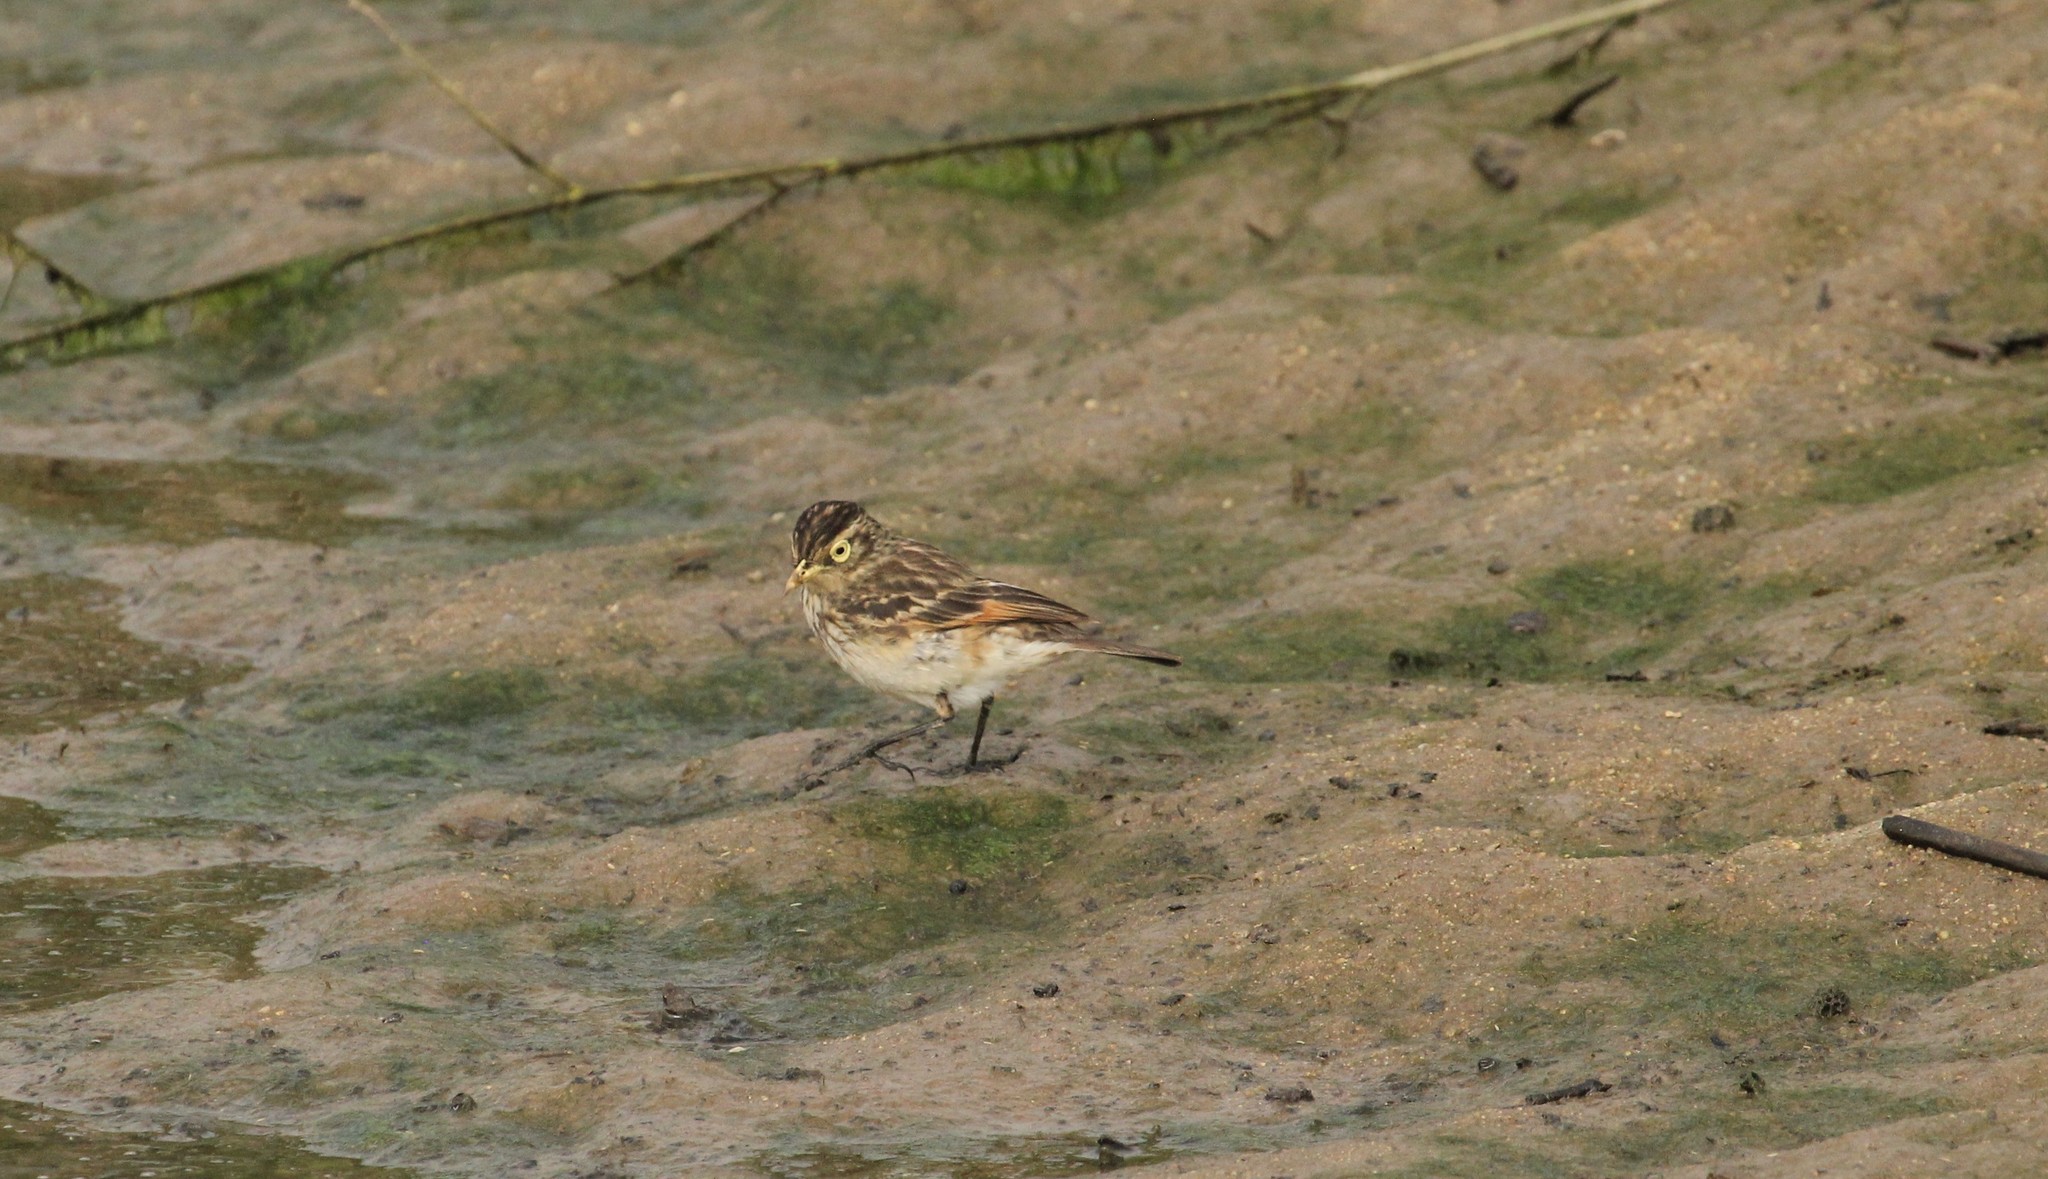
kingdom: Animalia
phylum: Chordata
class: Aves
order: Passeriformes
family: Tyrannidae
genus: Hymenops
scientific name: Hymenops perspicillatus
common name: Spectacled tyrant
